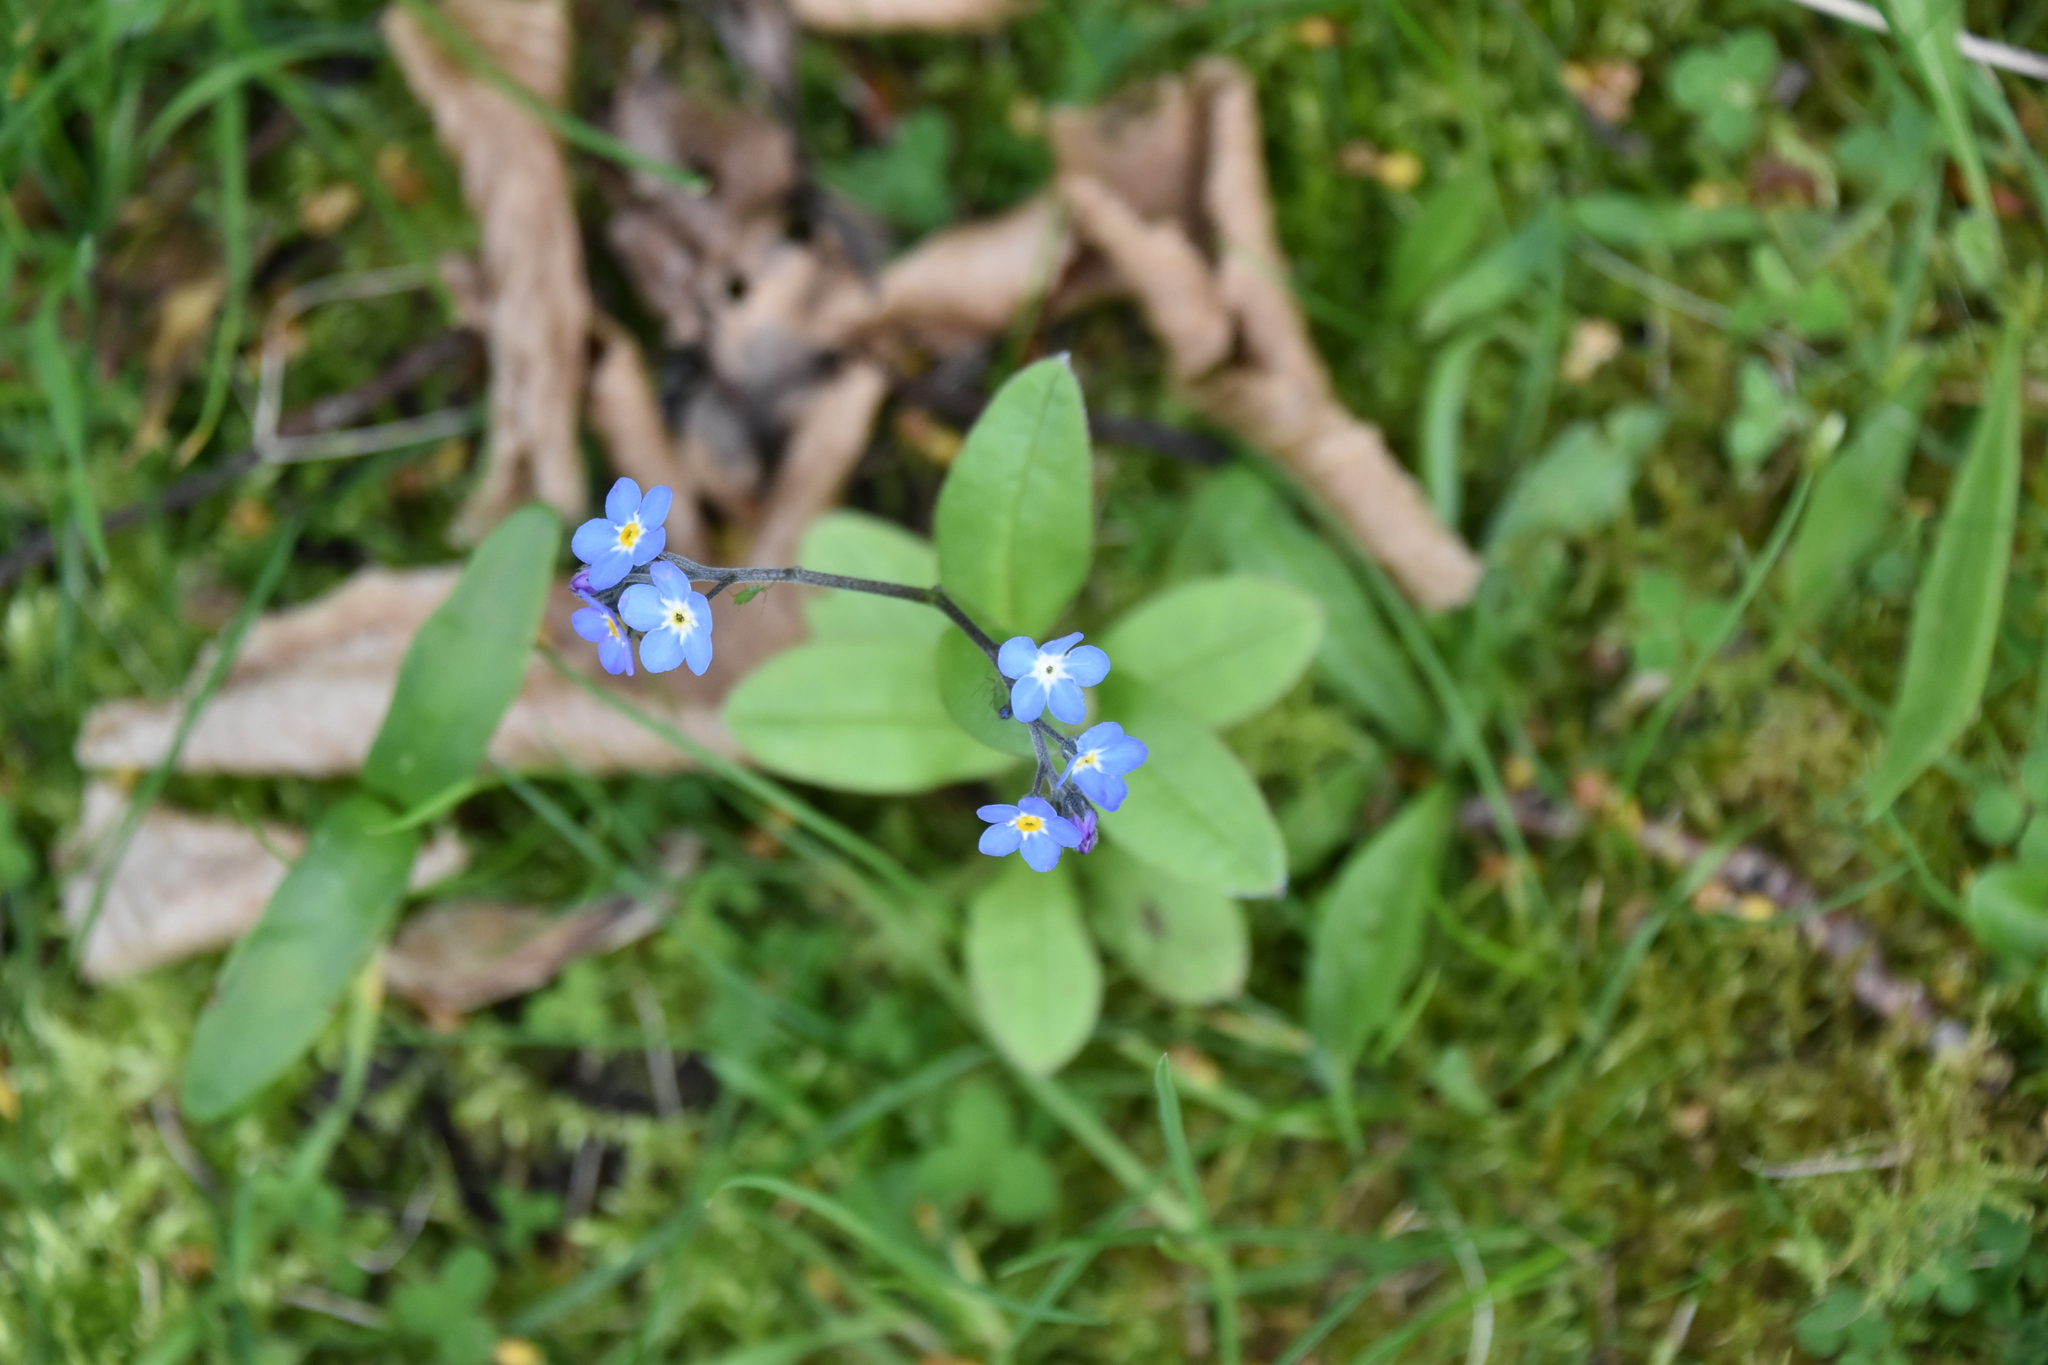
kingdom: Plantae
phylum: Tracheophyta
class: Magnoliopsida
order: Boraginales
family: Boraginaceae
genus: Myosotis
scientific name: Myosotis sylvatica
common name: Wood forget-me-not
